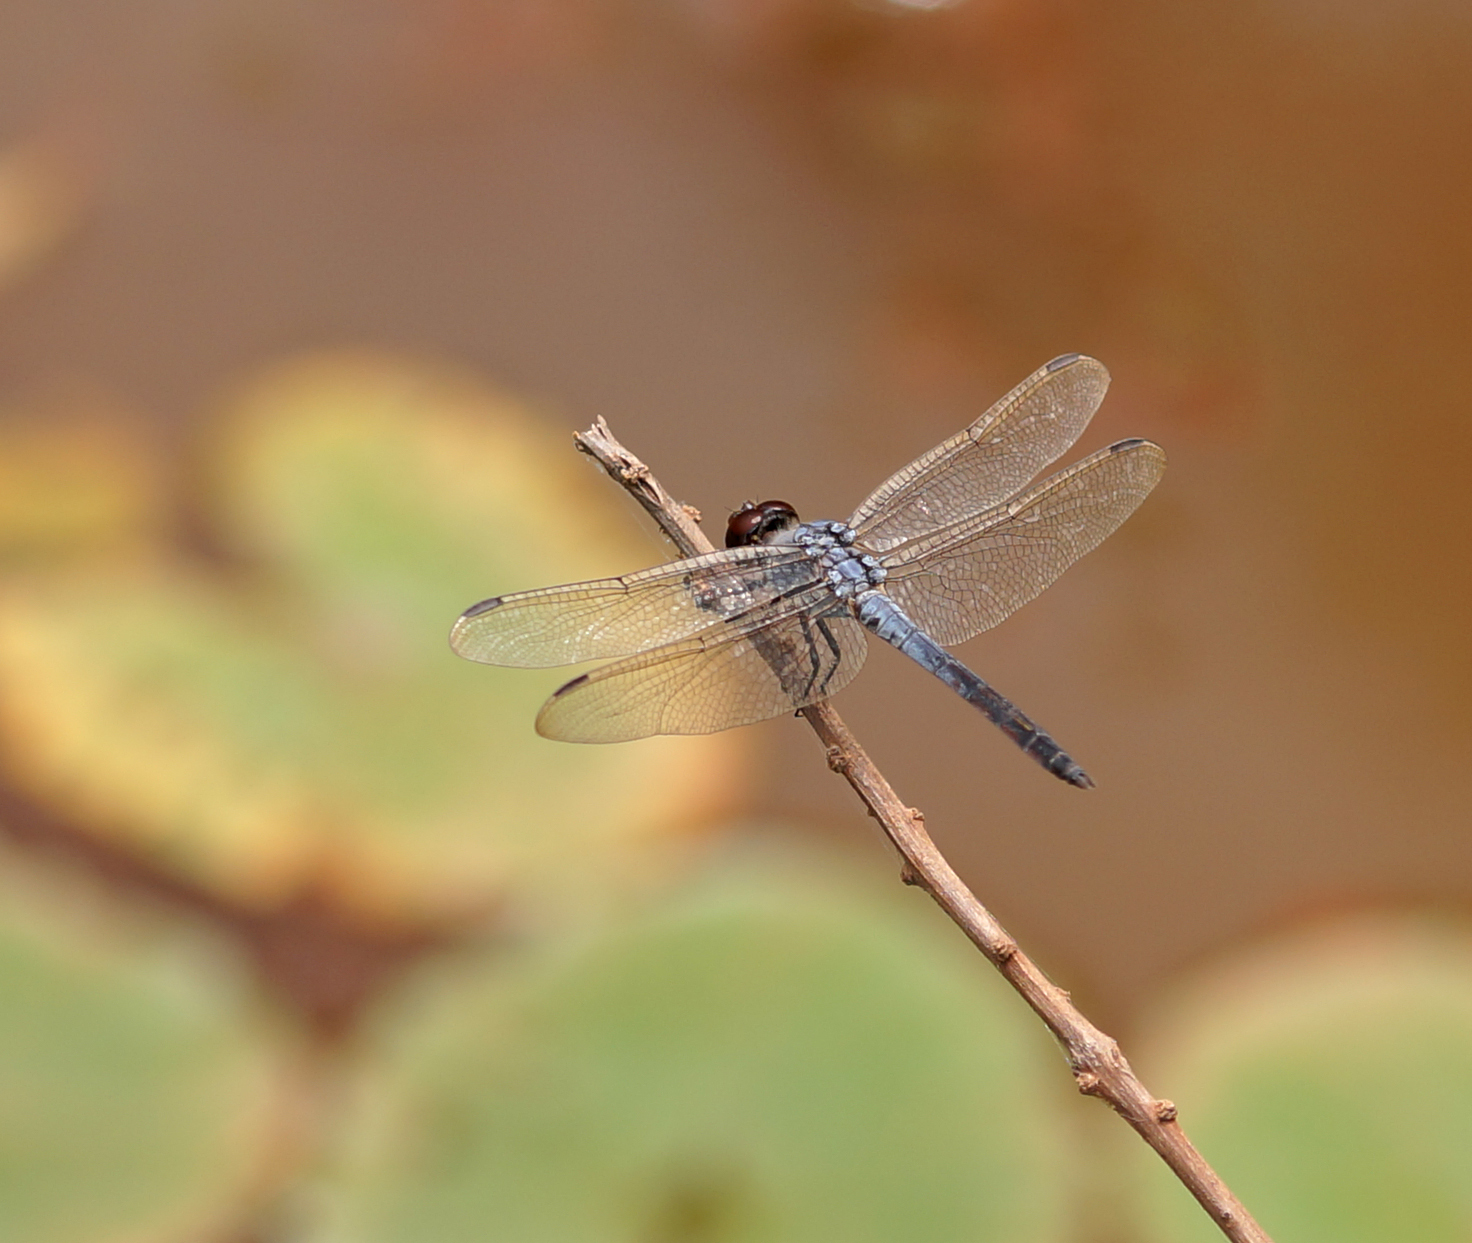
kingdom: Animalia
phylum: Arthropoda
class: Insecta
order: Odonata
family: Libellulidae
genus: Potamarcha
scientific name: Potamarcha congener
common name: Blue chaser
